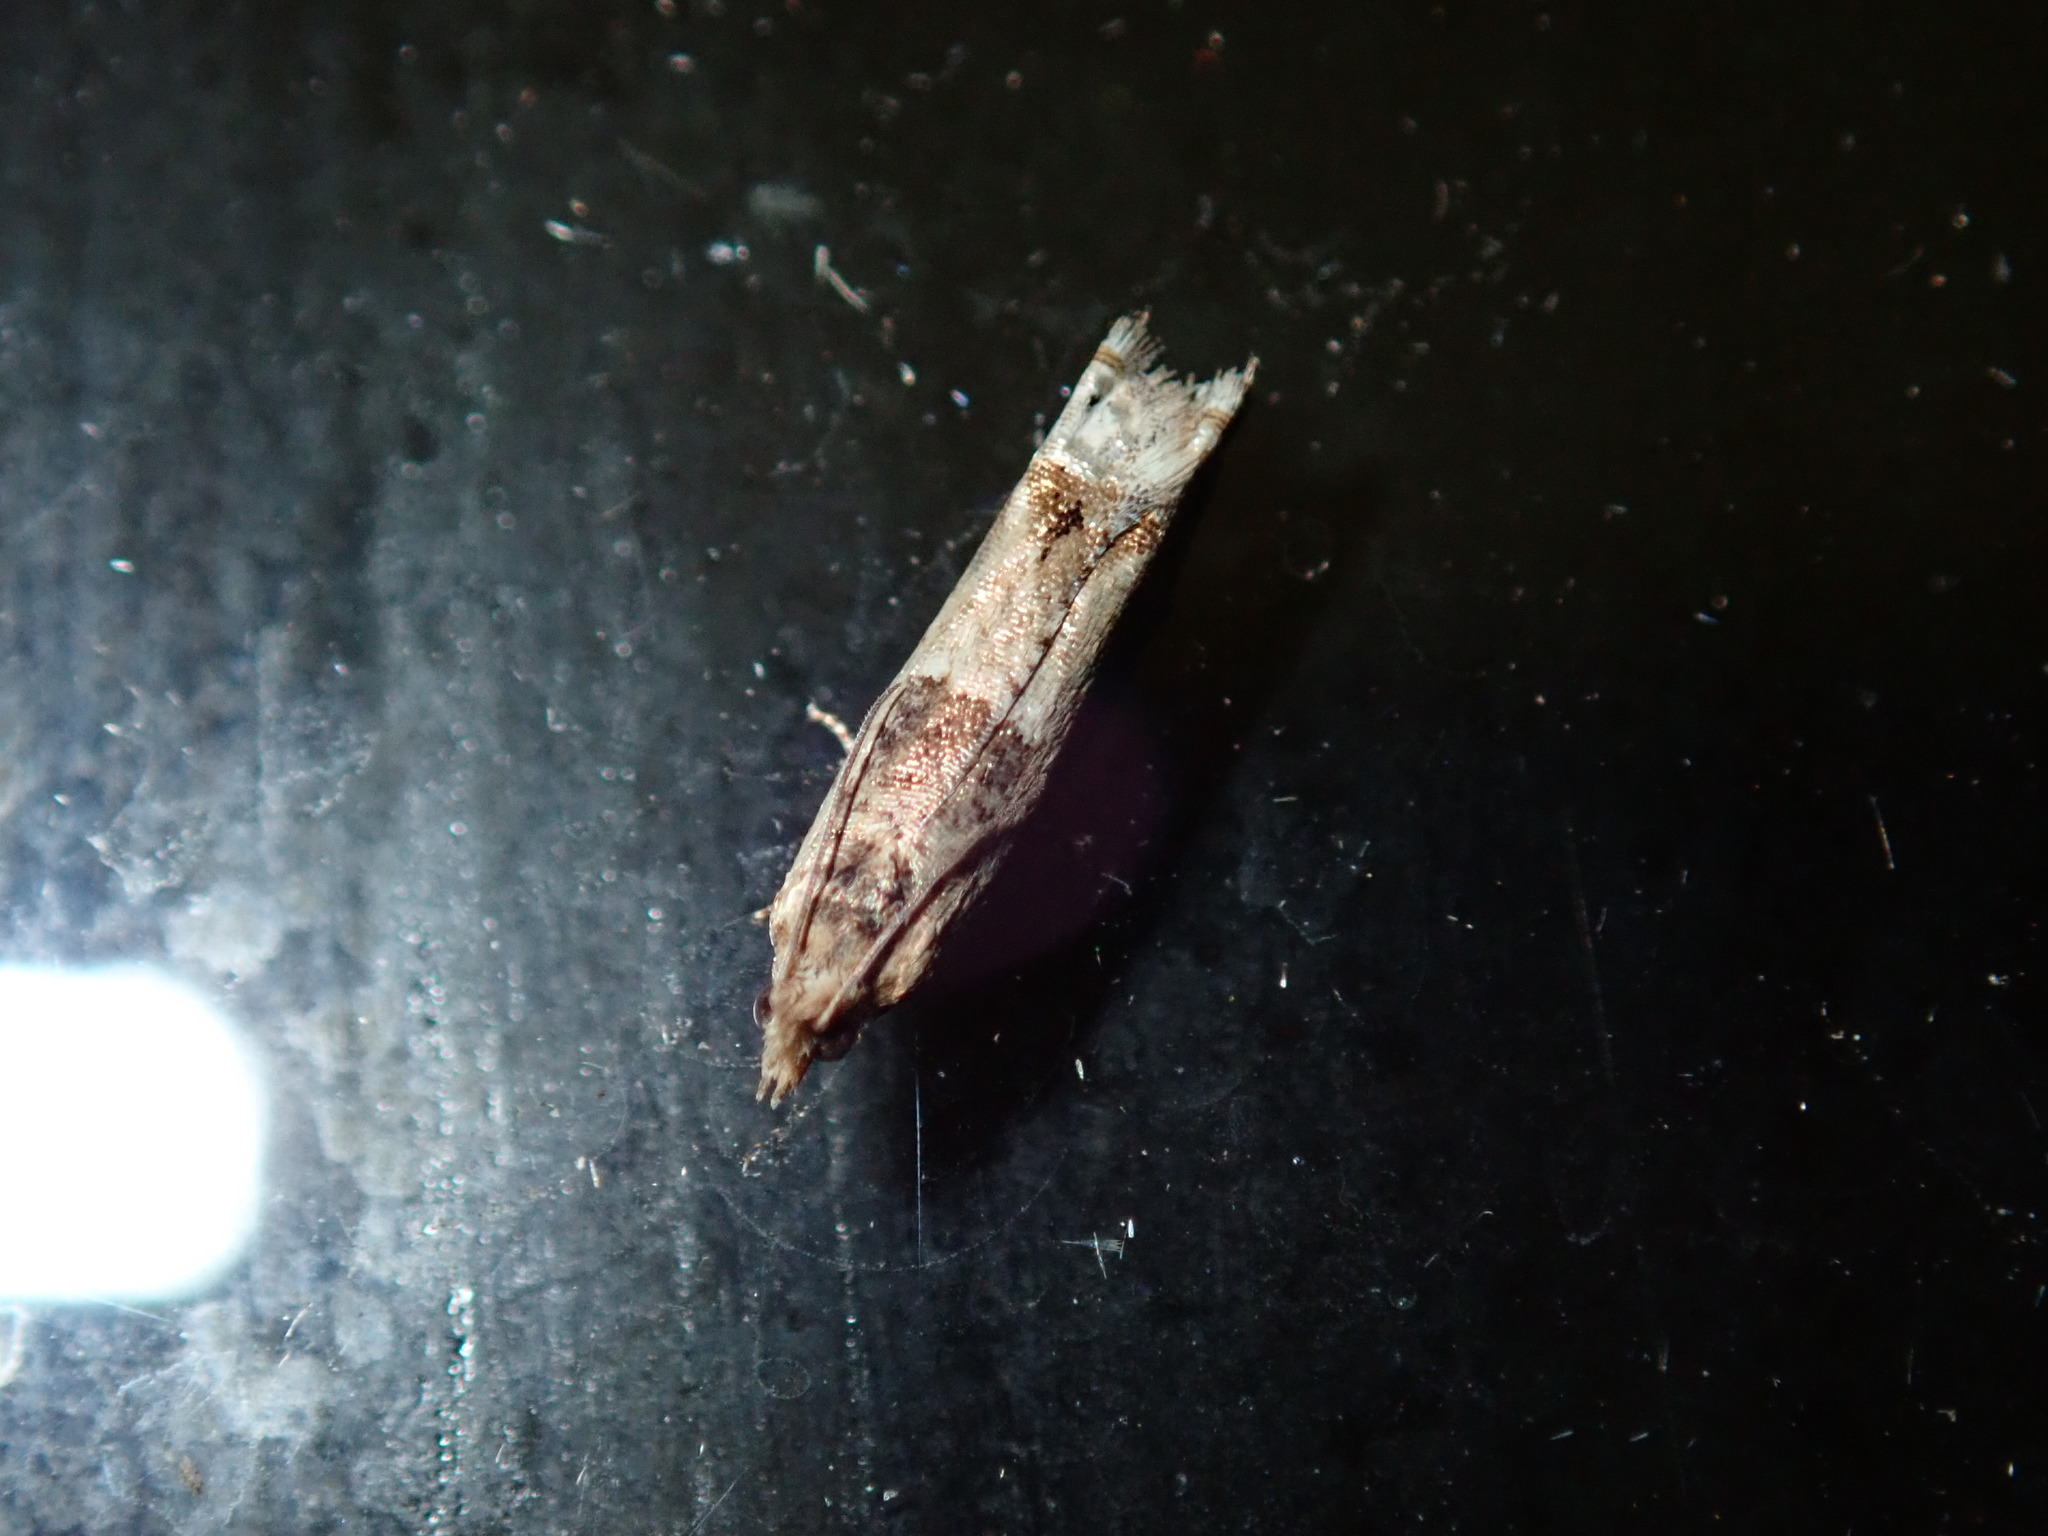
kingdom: Animalia
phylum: Arthropoda
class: Insecta
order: Lepidoptera
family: Tortricidae
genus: Crocidosema
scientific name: Crocidosema plebejana
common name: Southern bell
